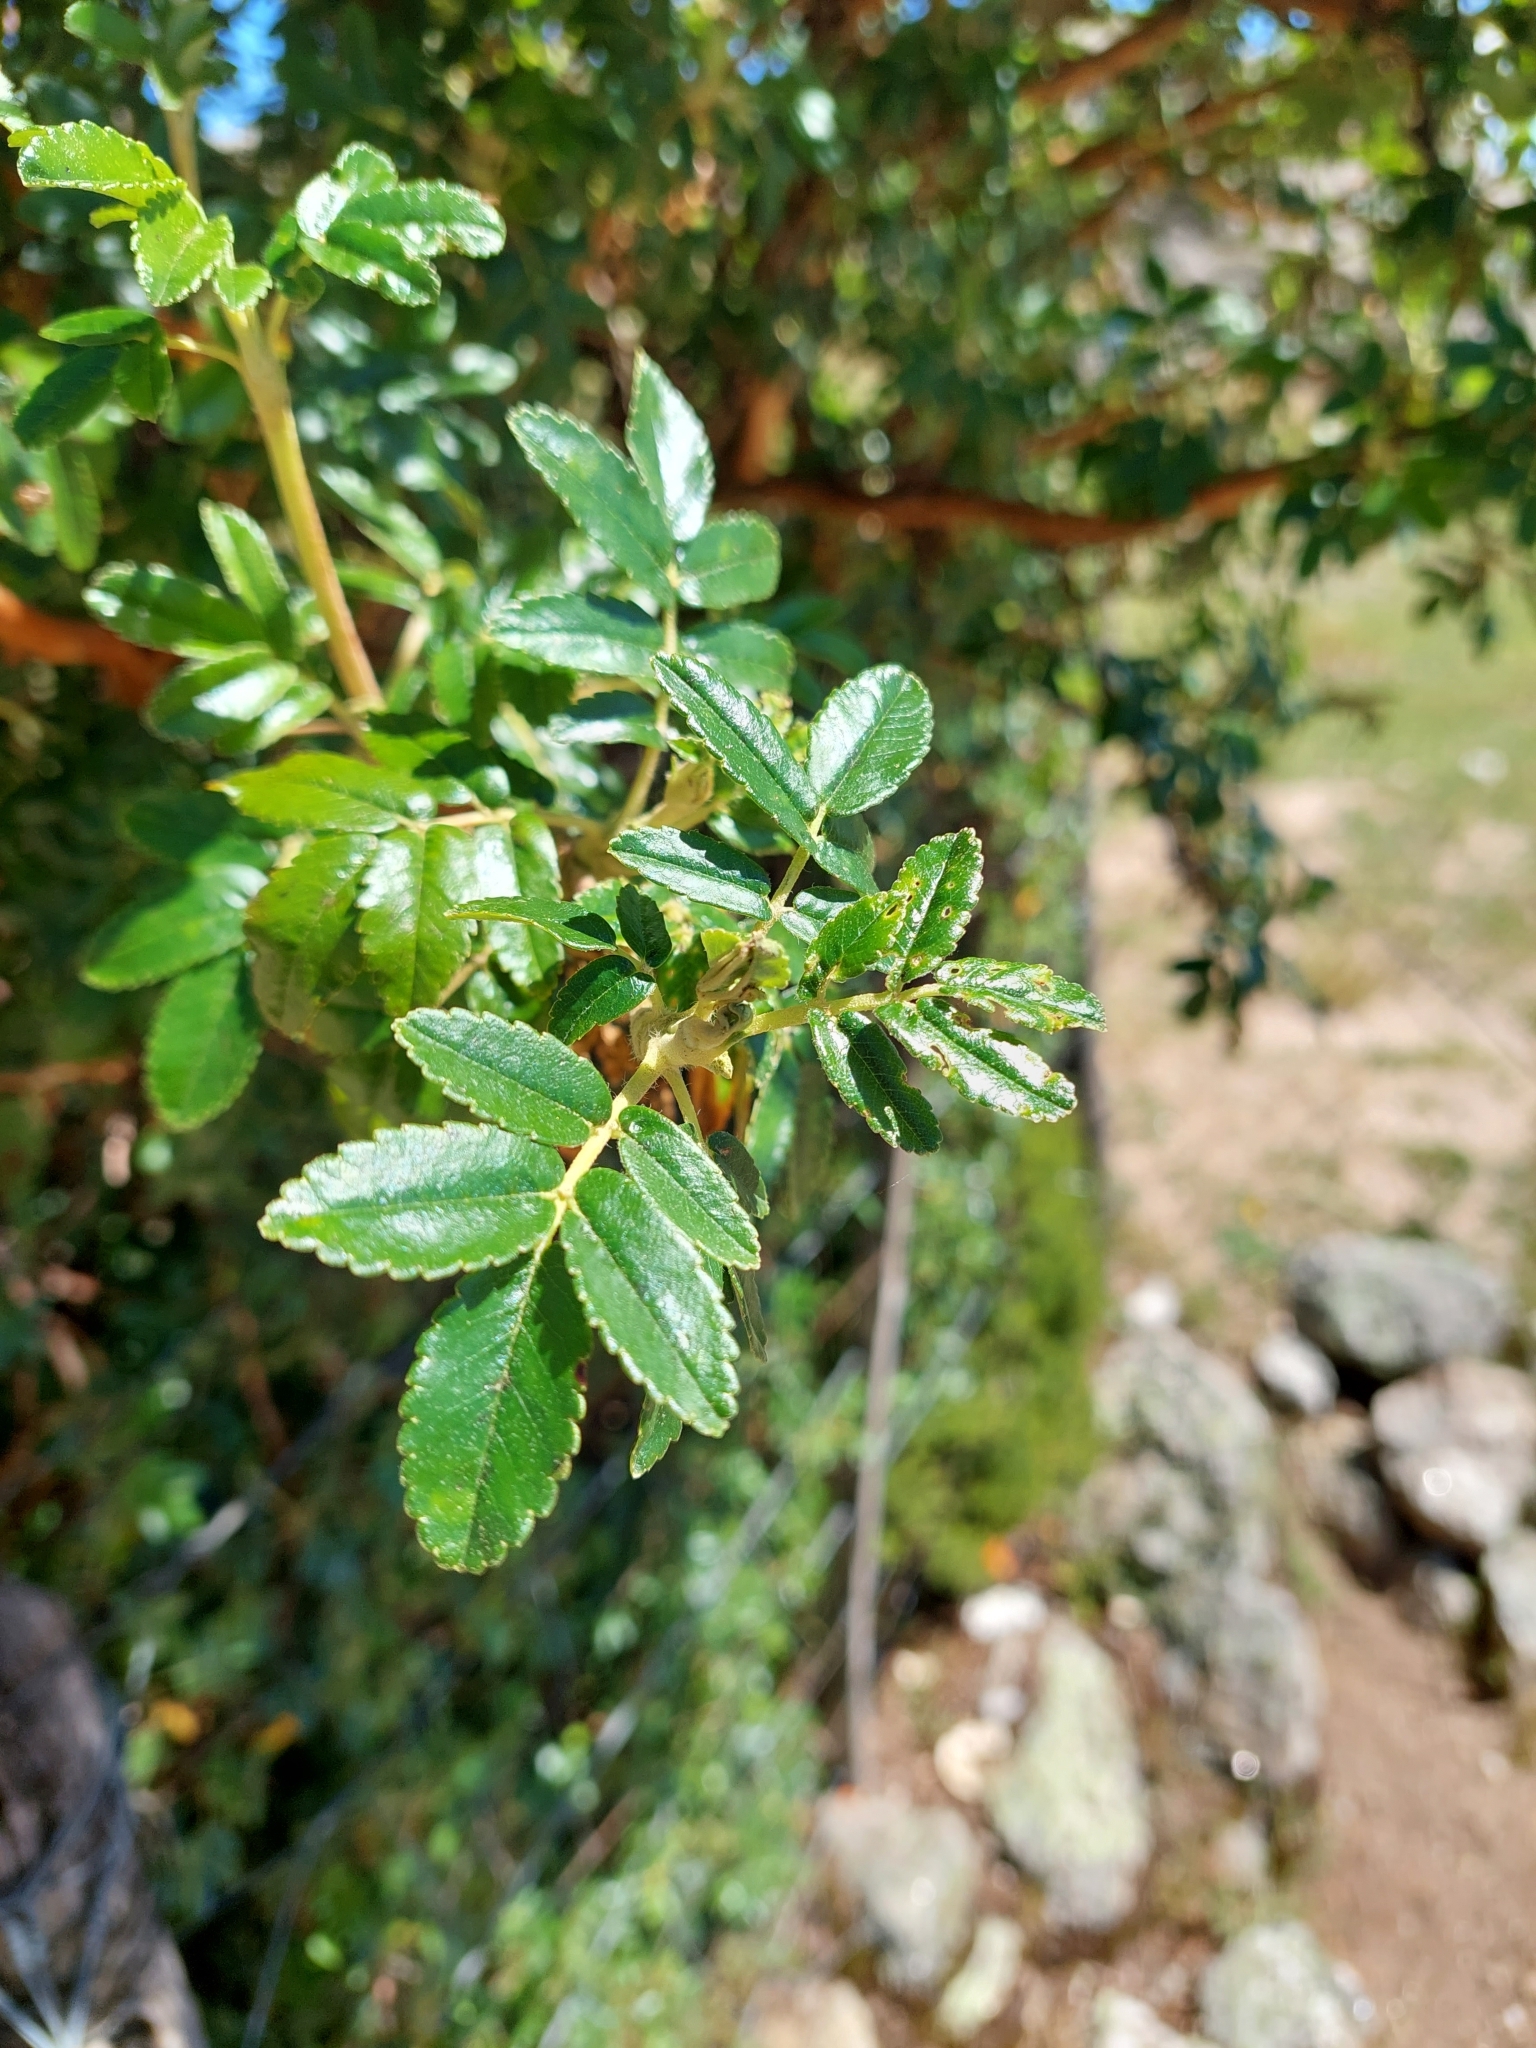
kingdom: Plantae
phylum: Tracheophyta
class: Magnoliopsida
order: Rosales
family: Rosaceae
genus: Polylepis
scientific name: Polylepis australis
